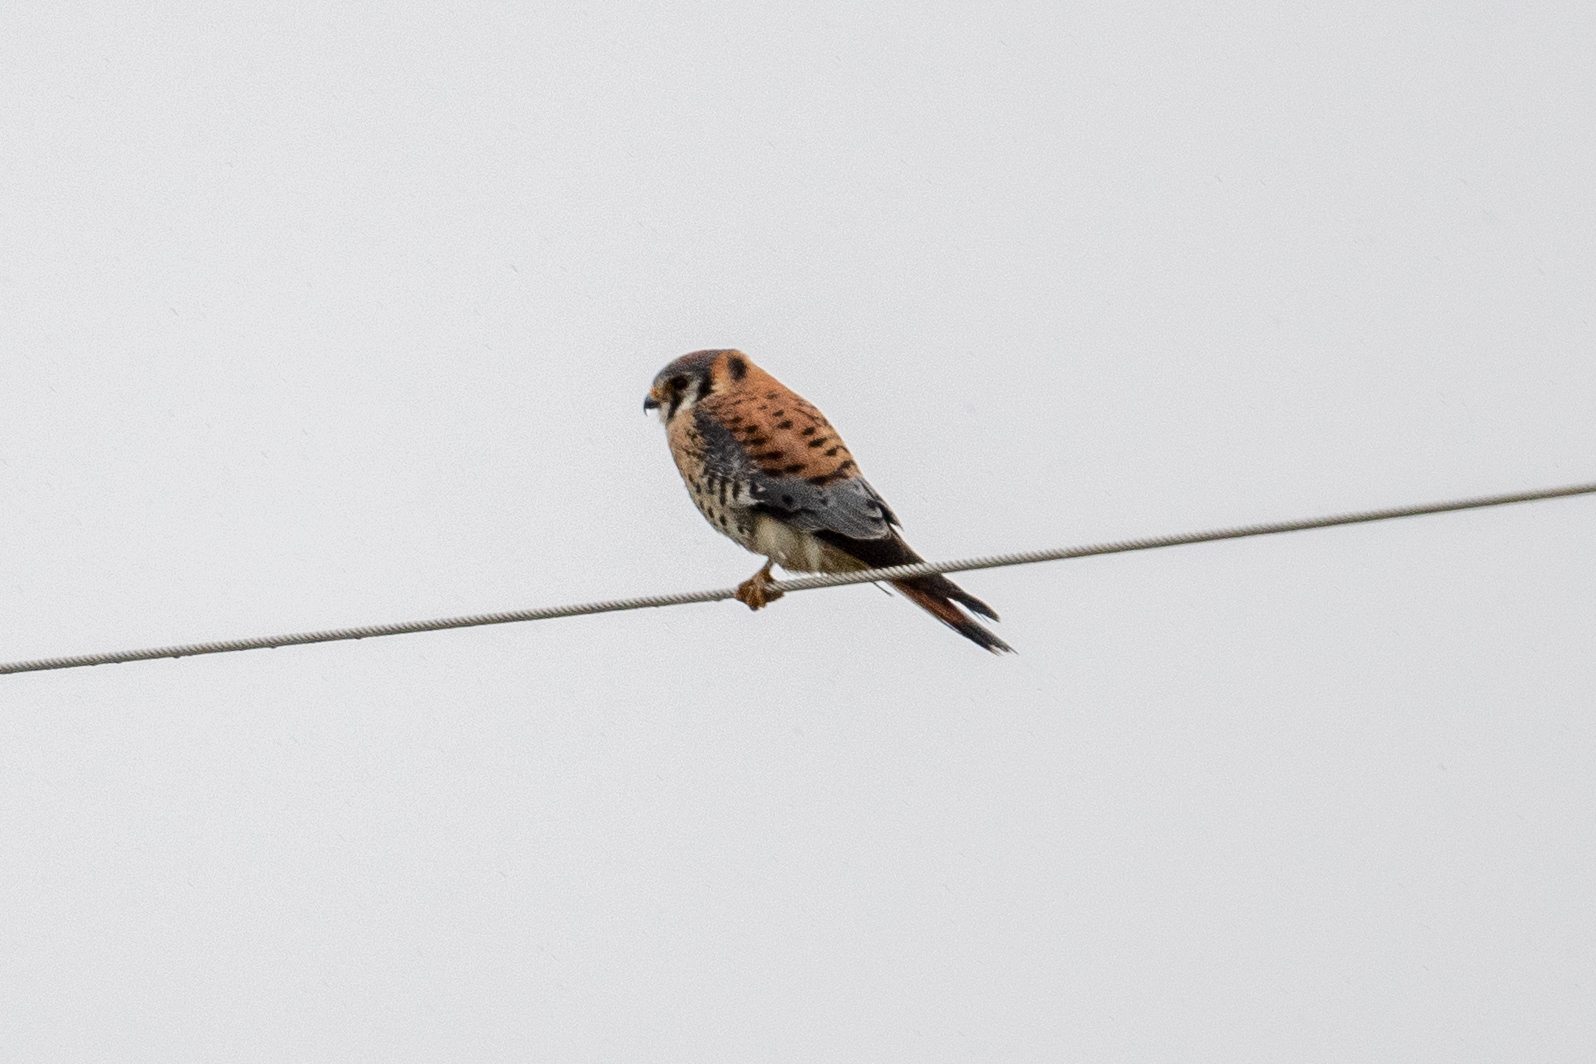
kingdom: Animalia
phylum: Chordata
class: Aves
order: Falconiformes
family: Falconidae
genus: Falco
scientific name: Falco sparverius
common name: American kestrel
